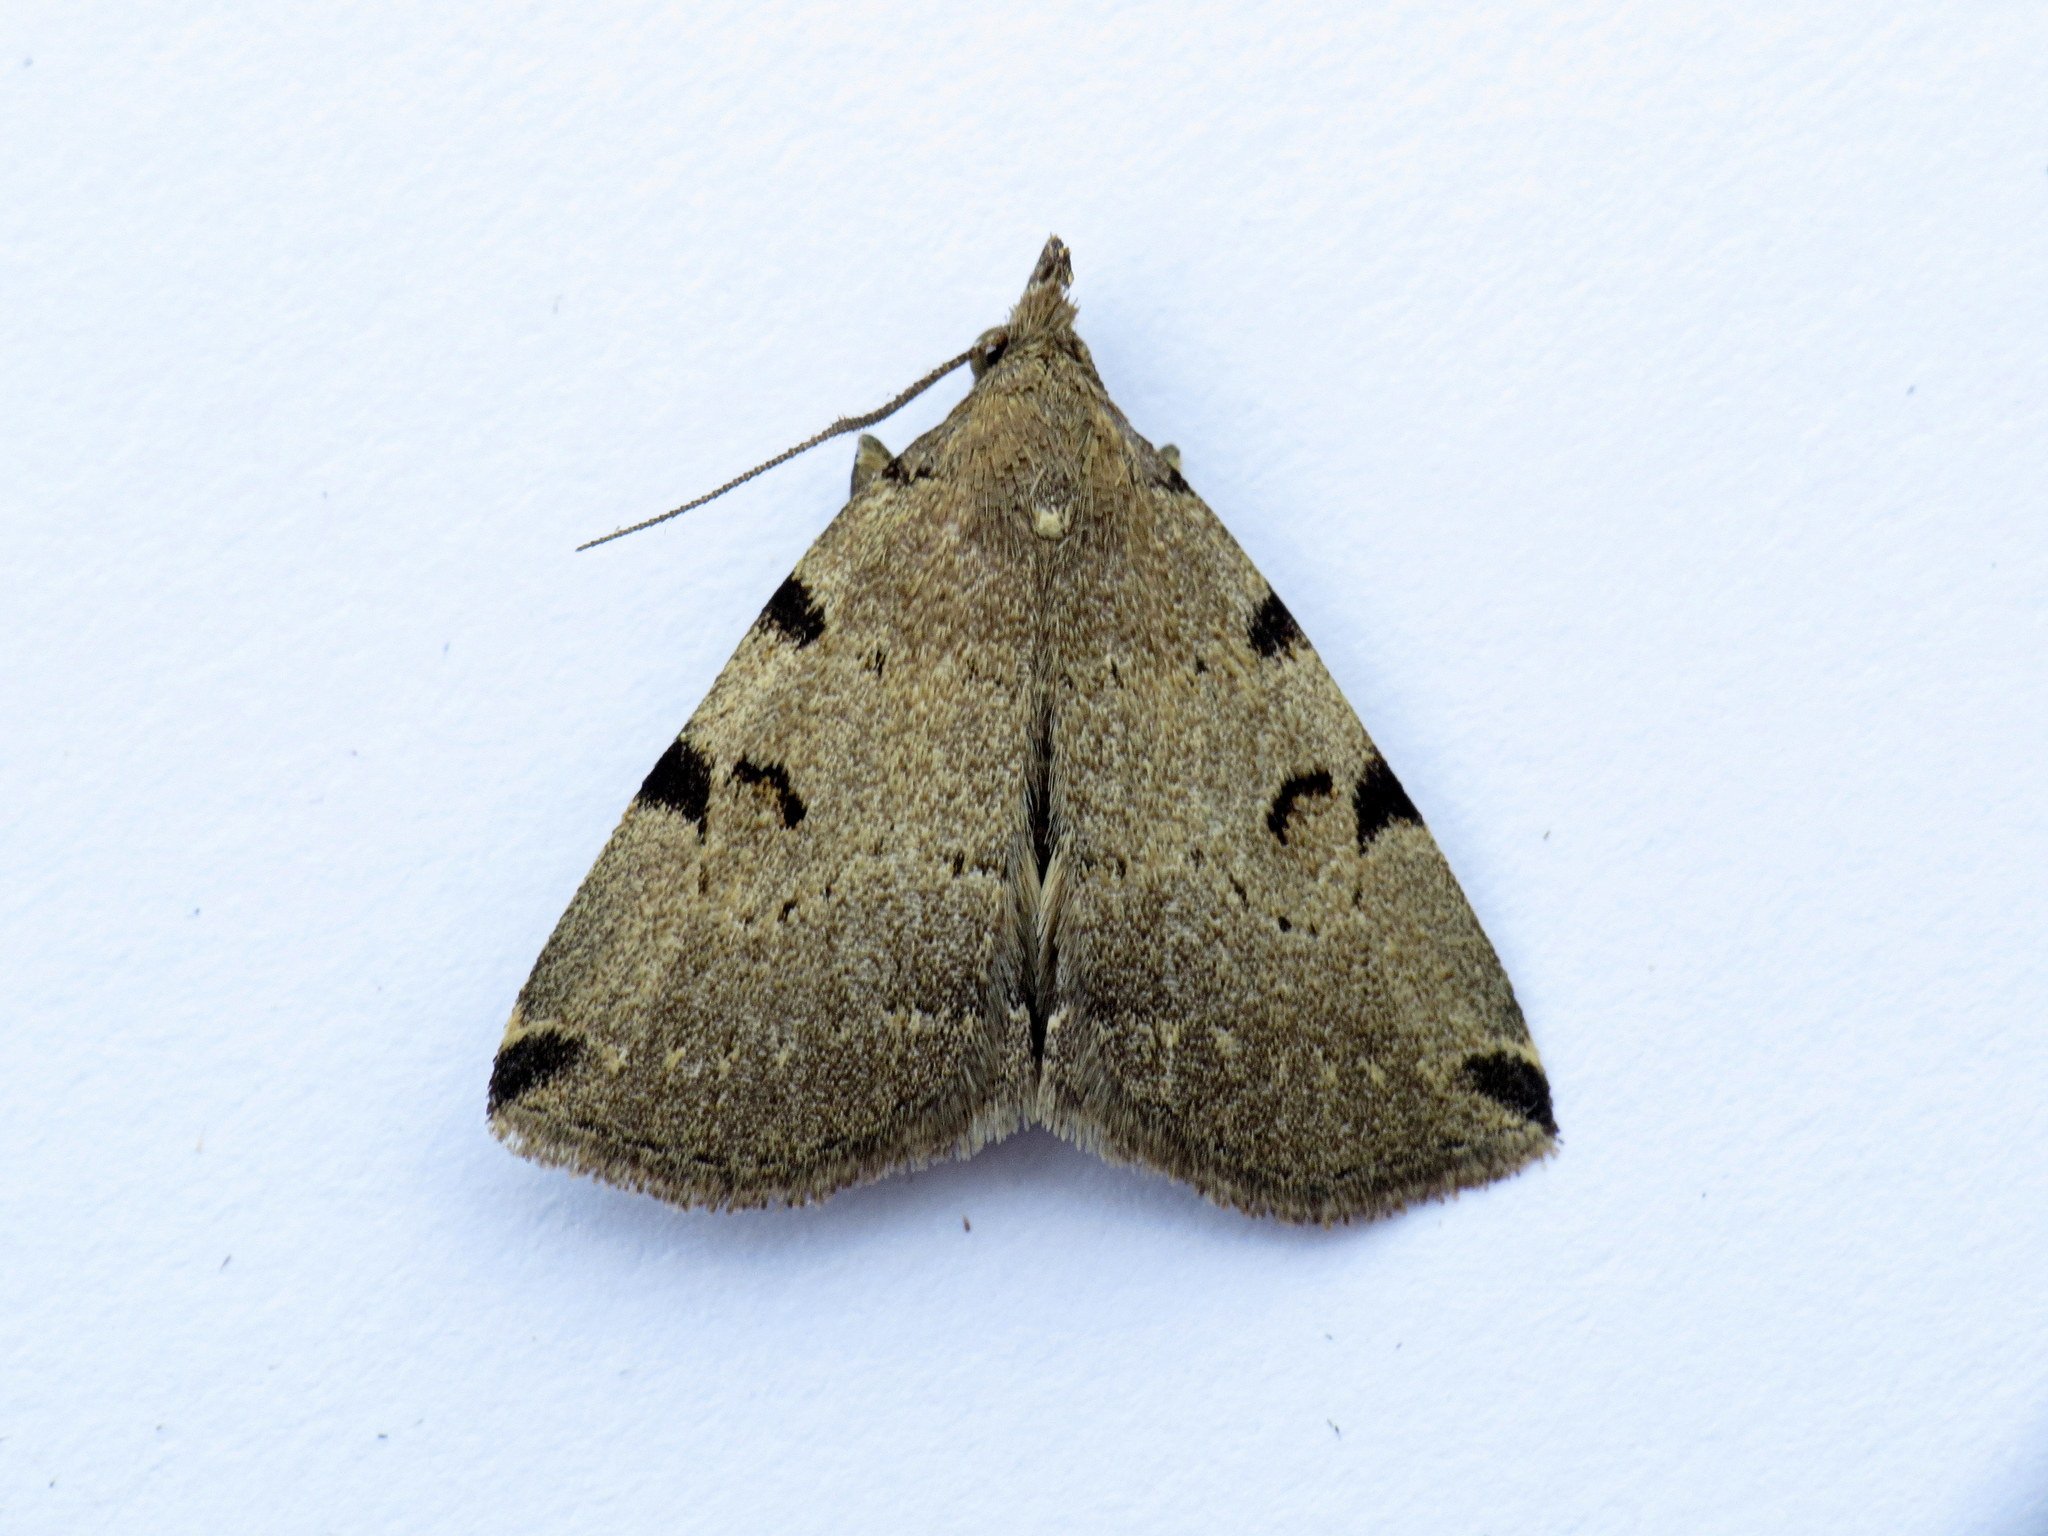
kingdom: Animalia
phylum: Arthropoda
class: Insecta
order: Lepidoptera
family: Erebidae
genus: Zanclognatha
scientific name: Zanclognatha lituralis
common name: Lettered fan-foot
